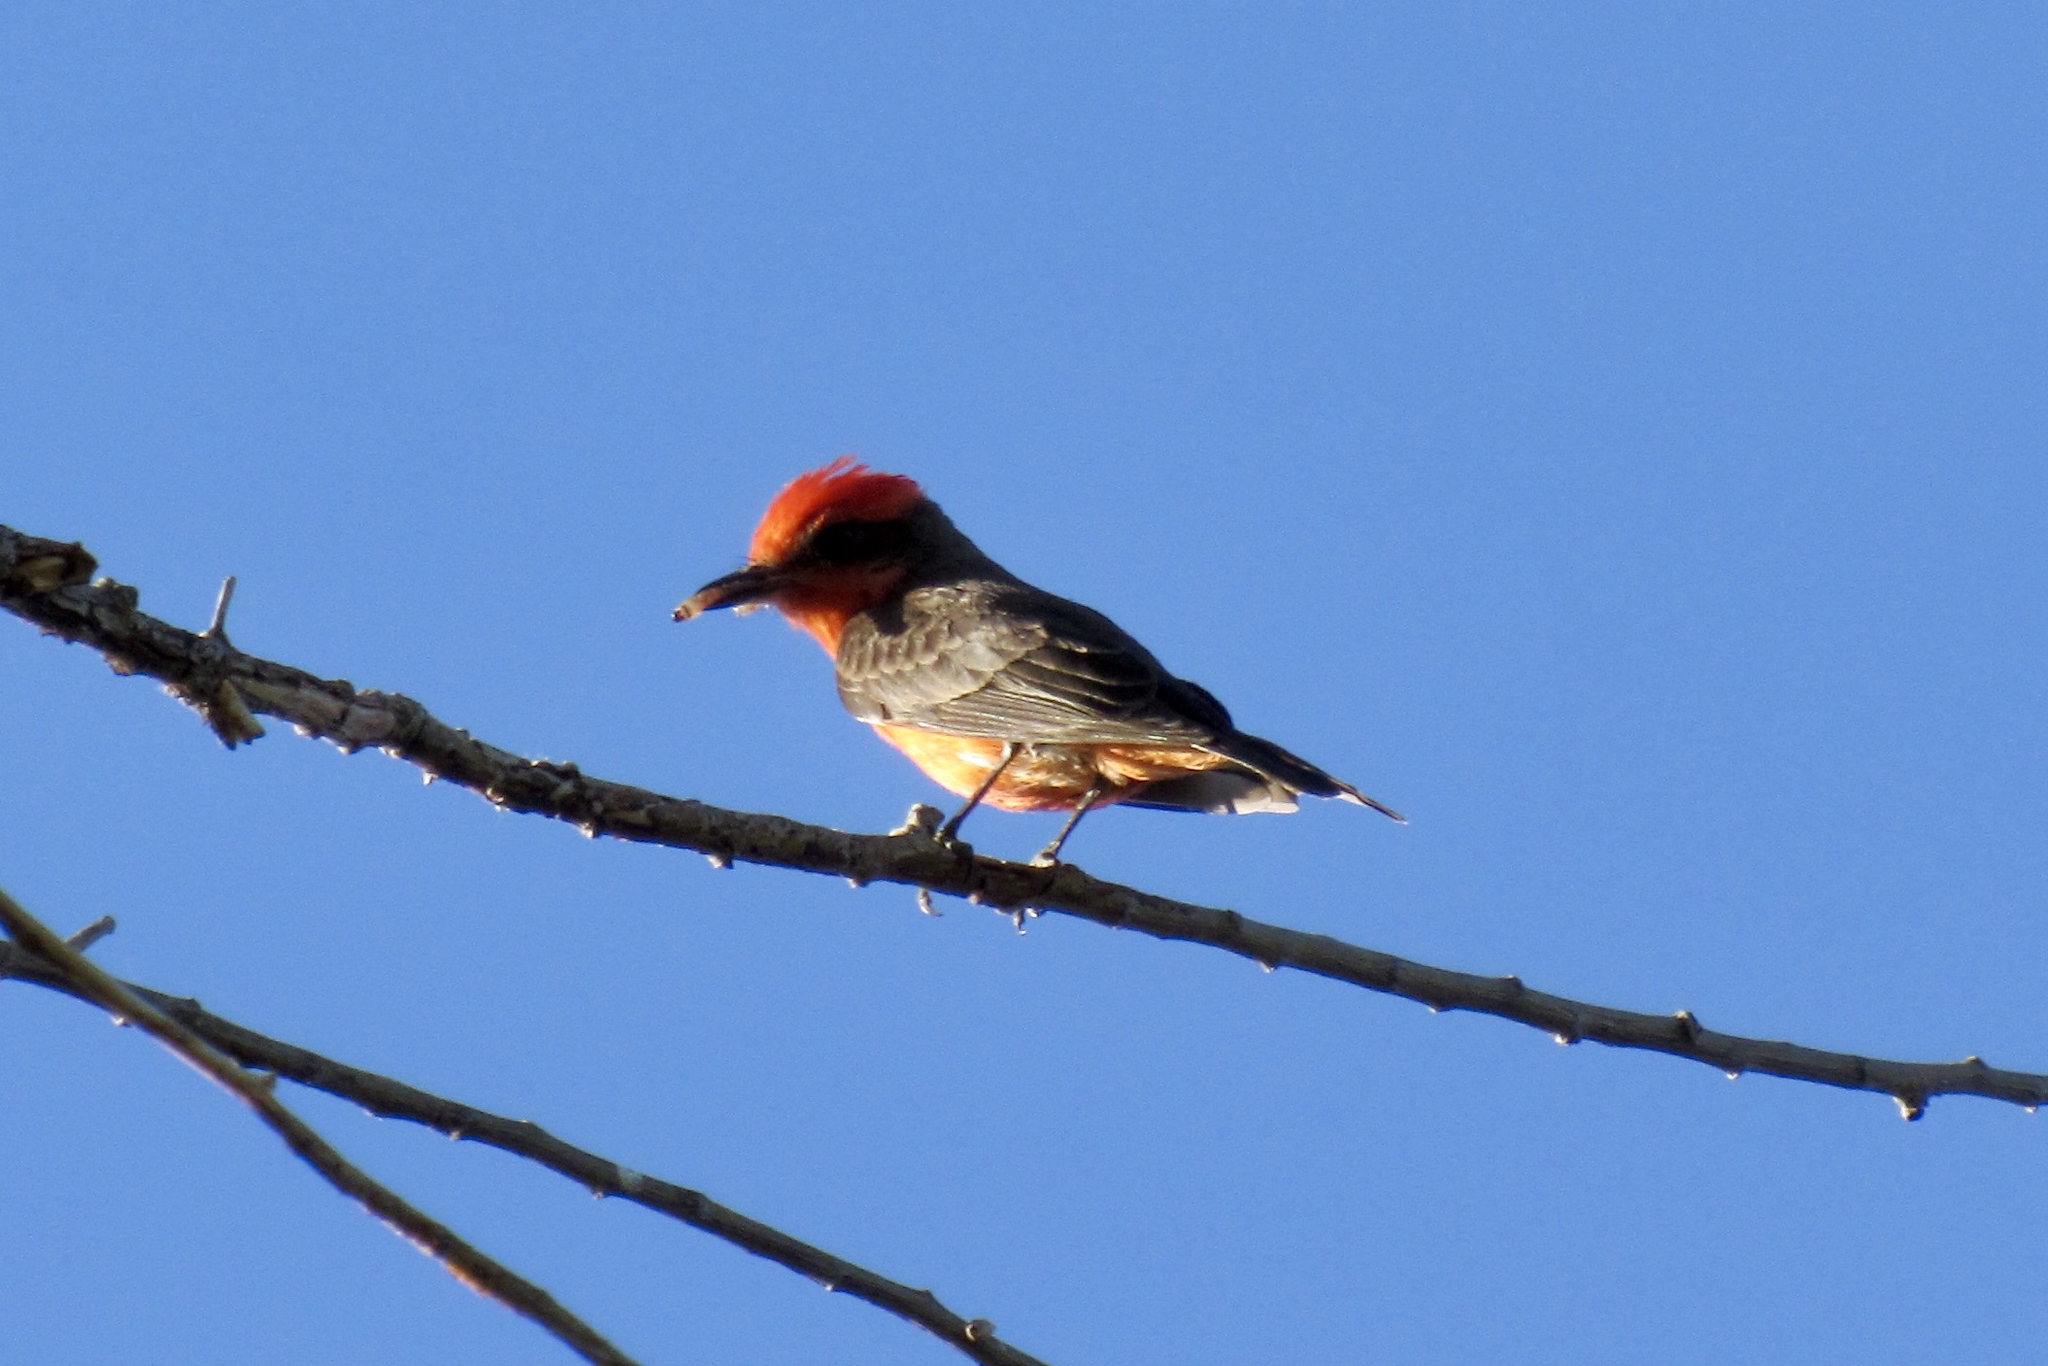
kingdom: Animalia
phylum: Chordata
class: Aves
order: Passeriformes
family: Tyrannidae
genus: Pyrocephalus
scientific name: Pyrocephalus rubinus
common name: Vermilion flycatcher
